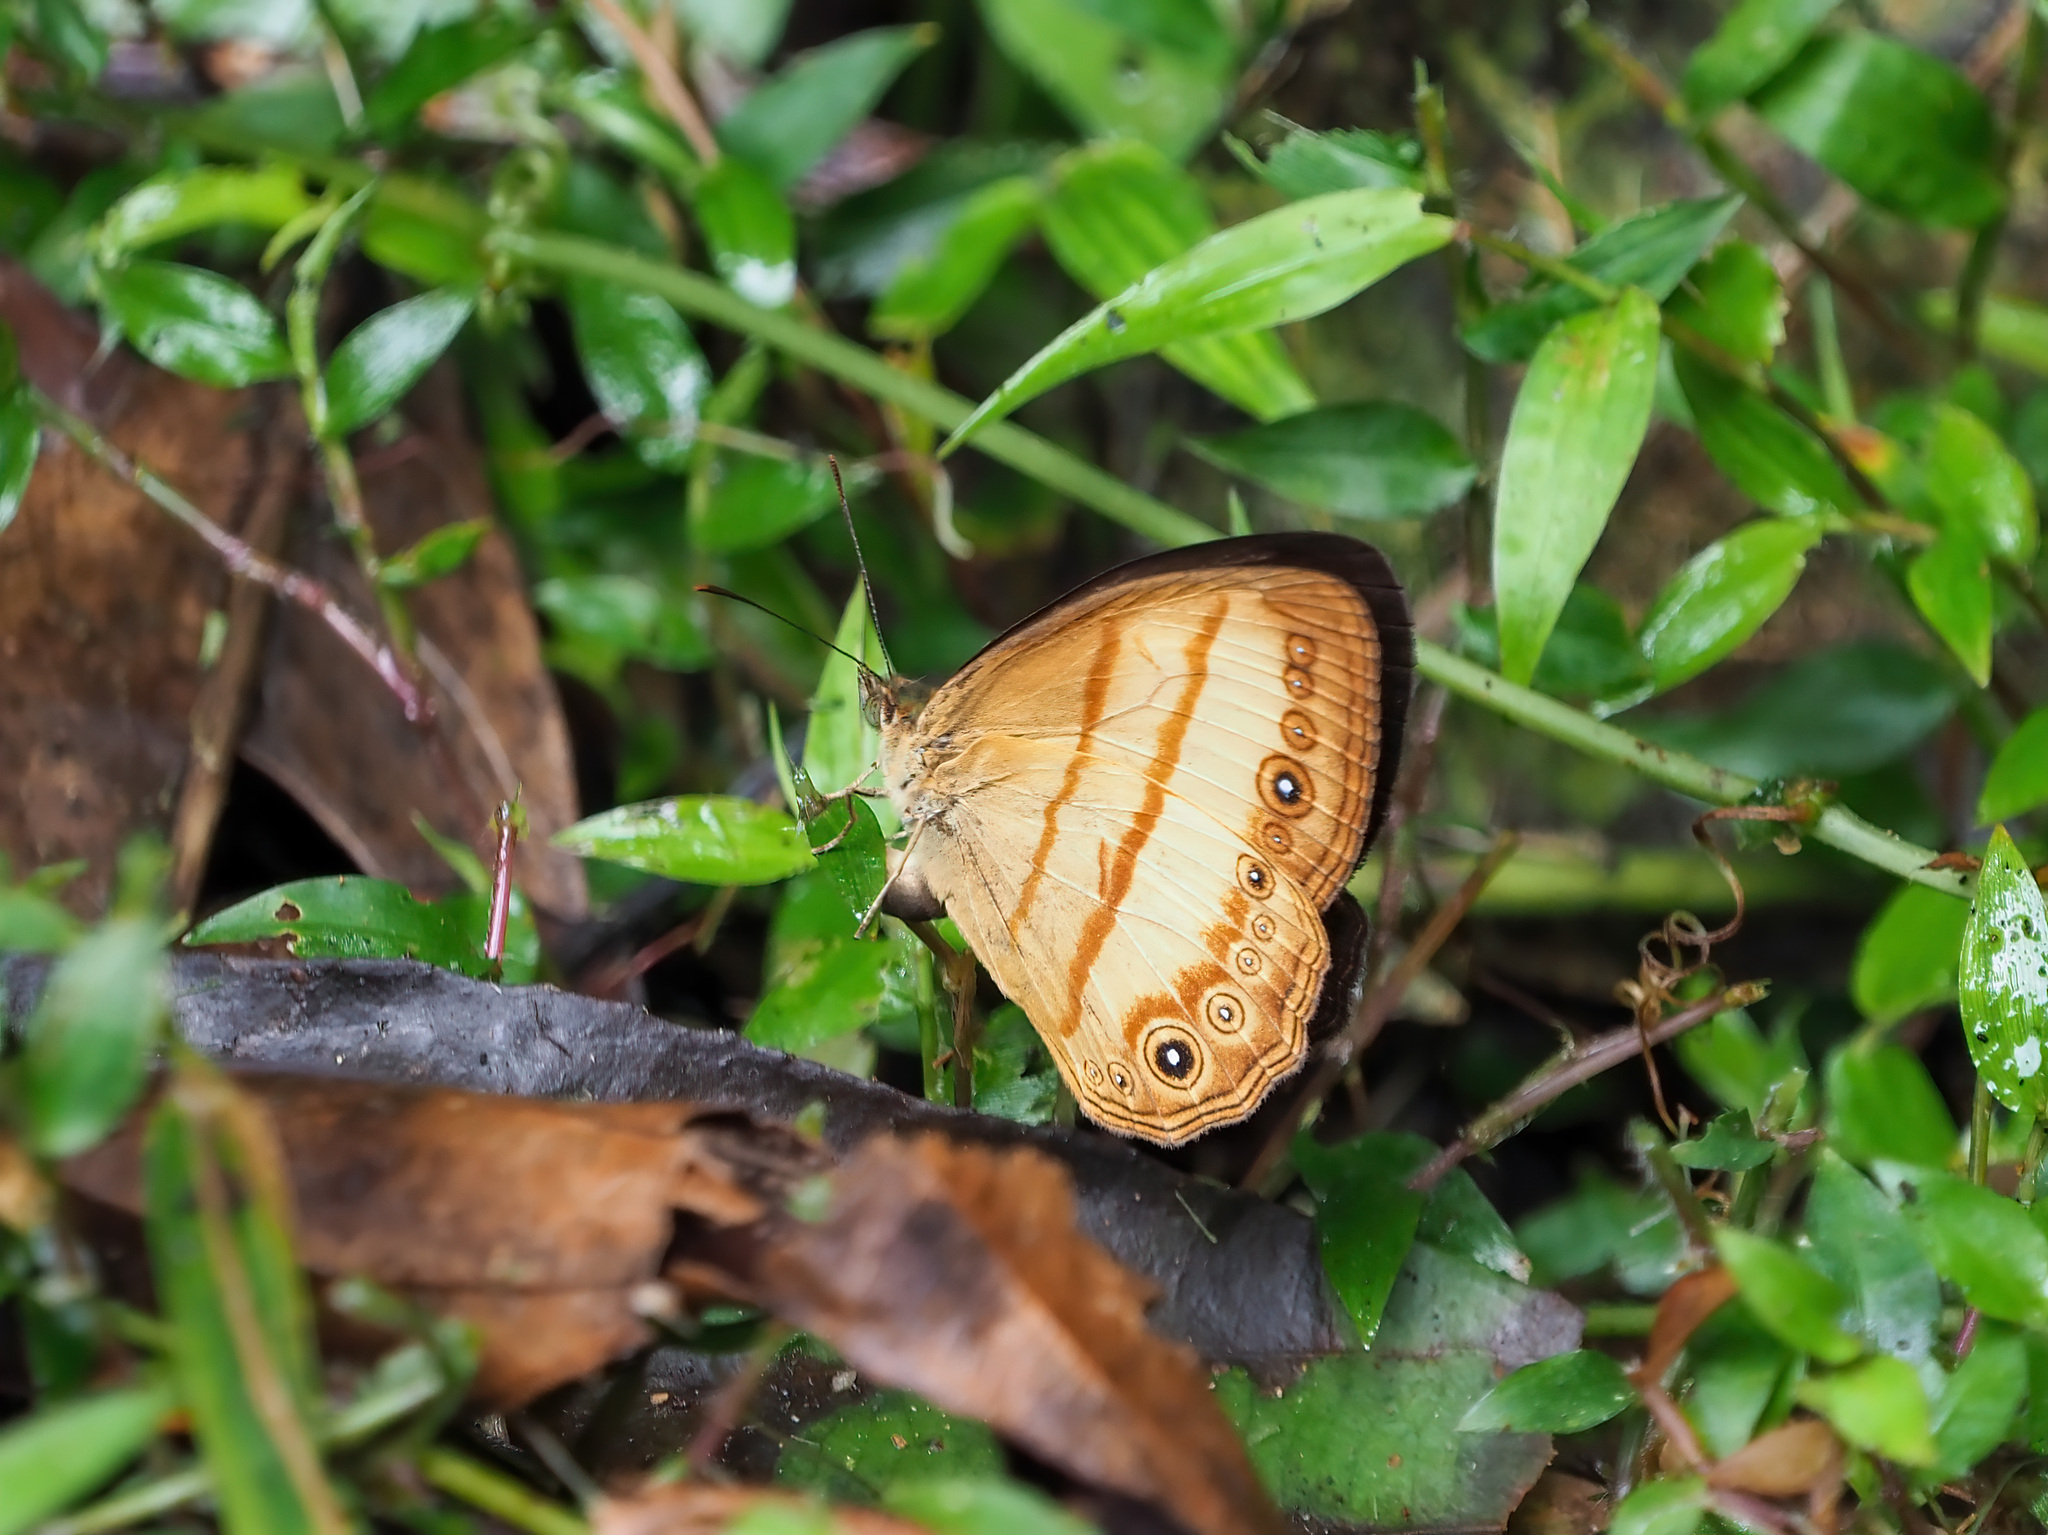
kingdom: Animalia
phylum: Arthropoda
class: Insecta
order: Lepidoptera
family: Nymphalidae
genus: Mycalesis
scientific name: Mycalesis marginata
